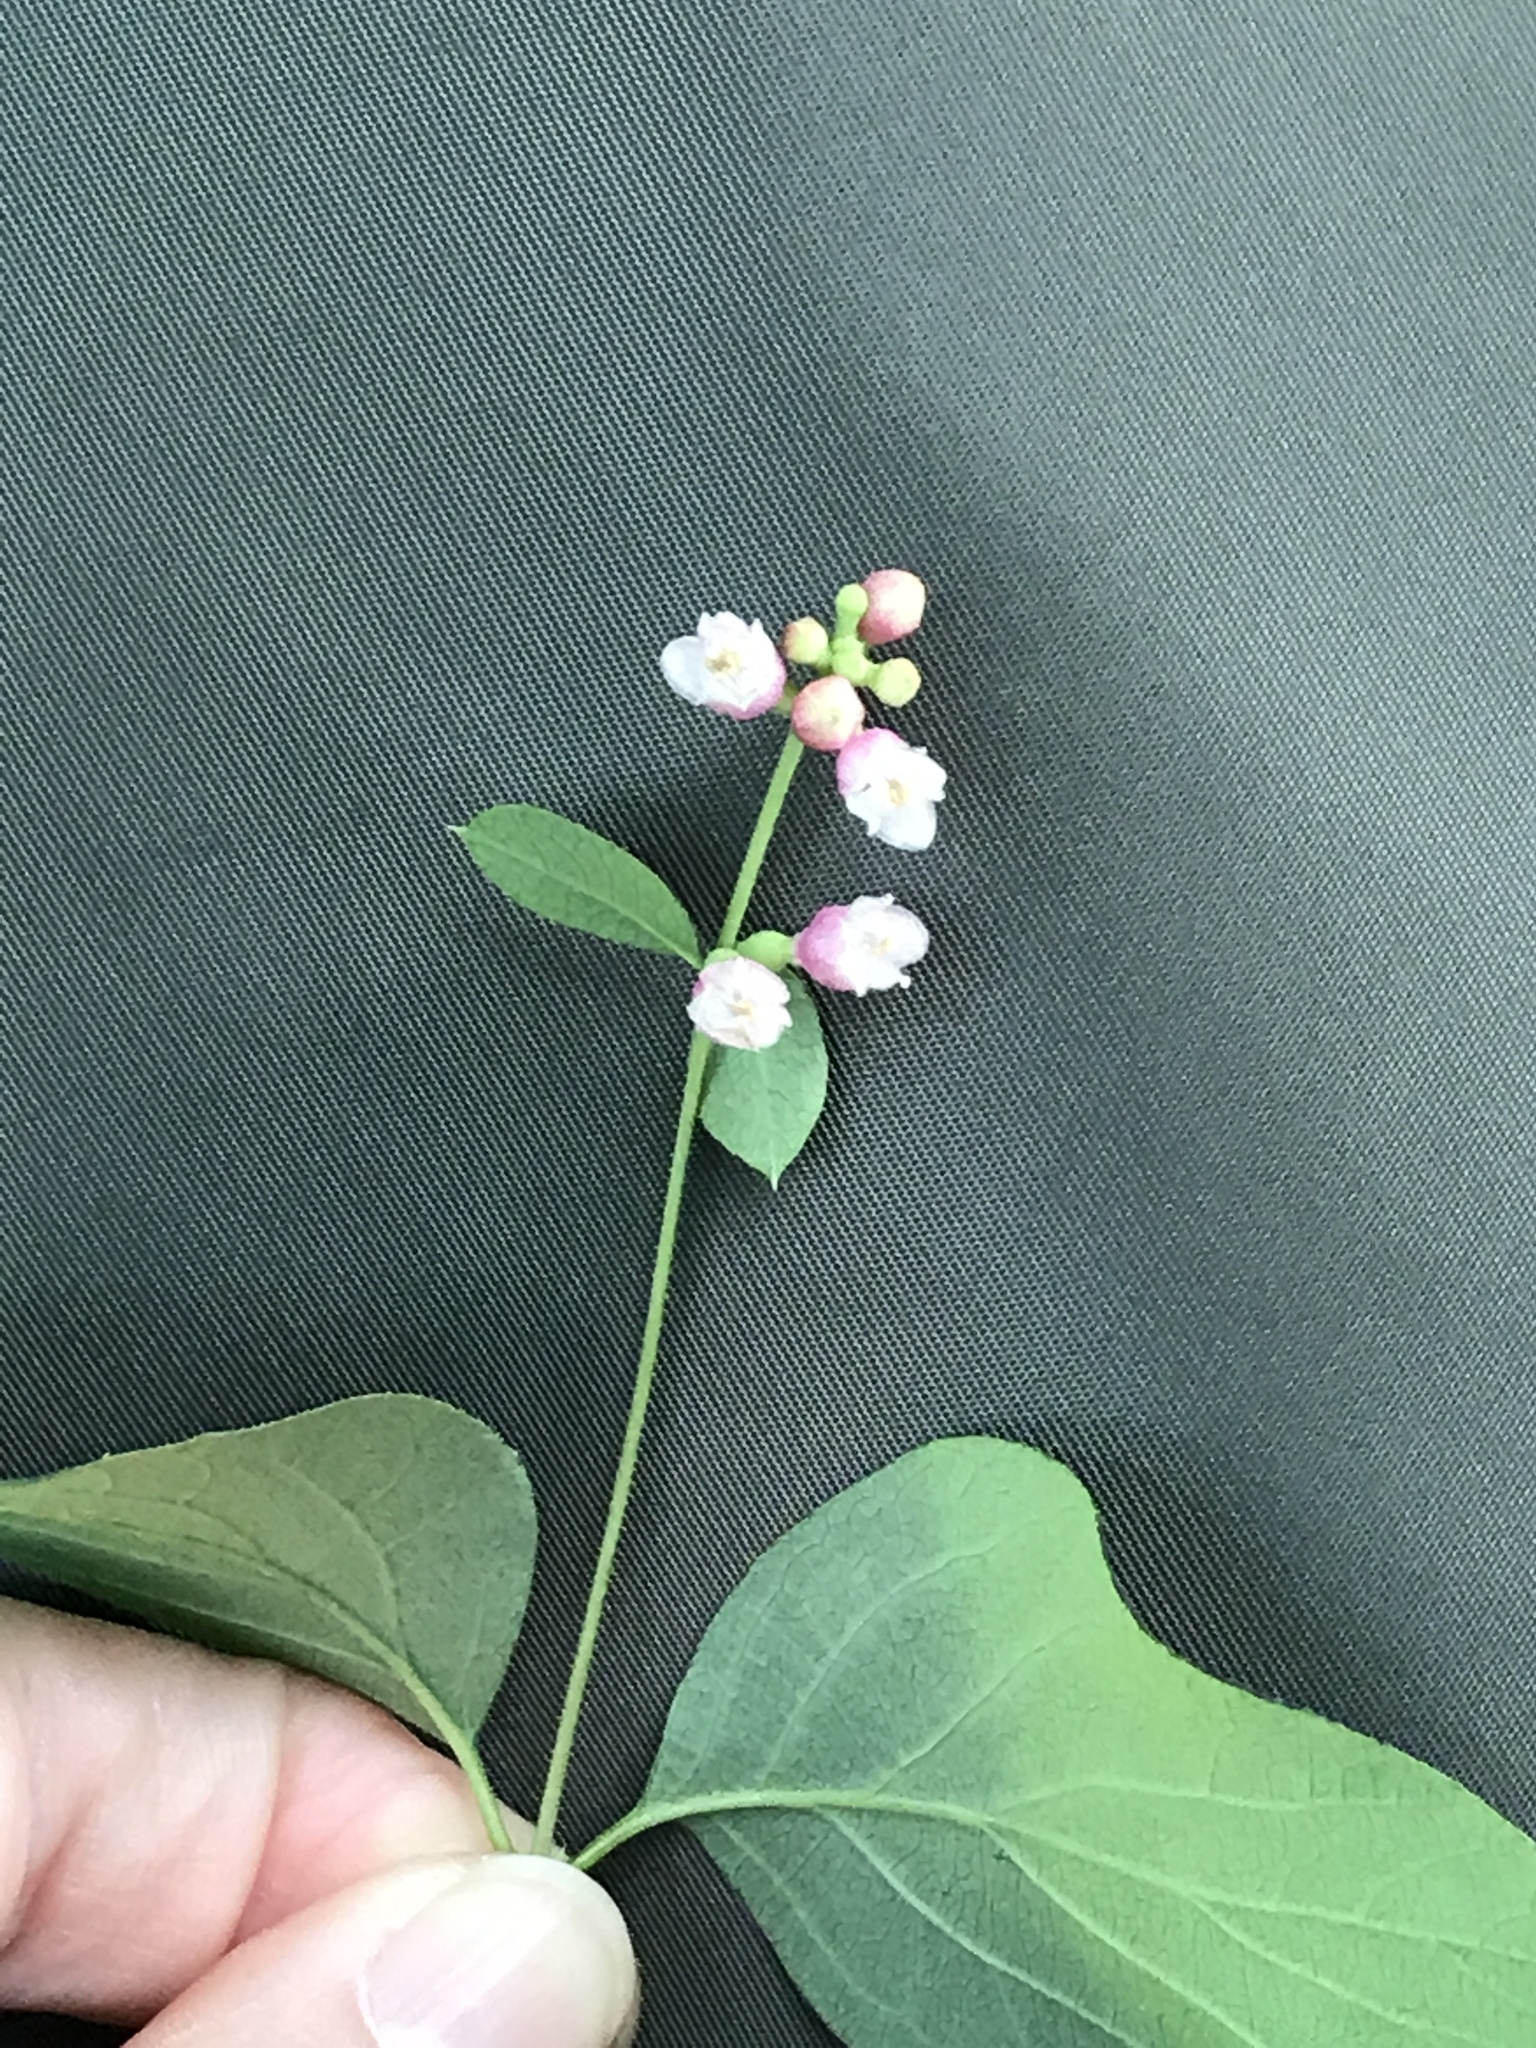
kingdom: Plantae
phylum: Tracheophyta
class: Magnoliopsida
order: Dipsacales
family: Caprifoliaceae
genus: Symphoricarpos
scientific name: Symphoricarpos albus
